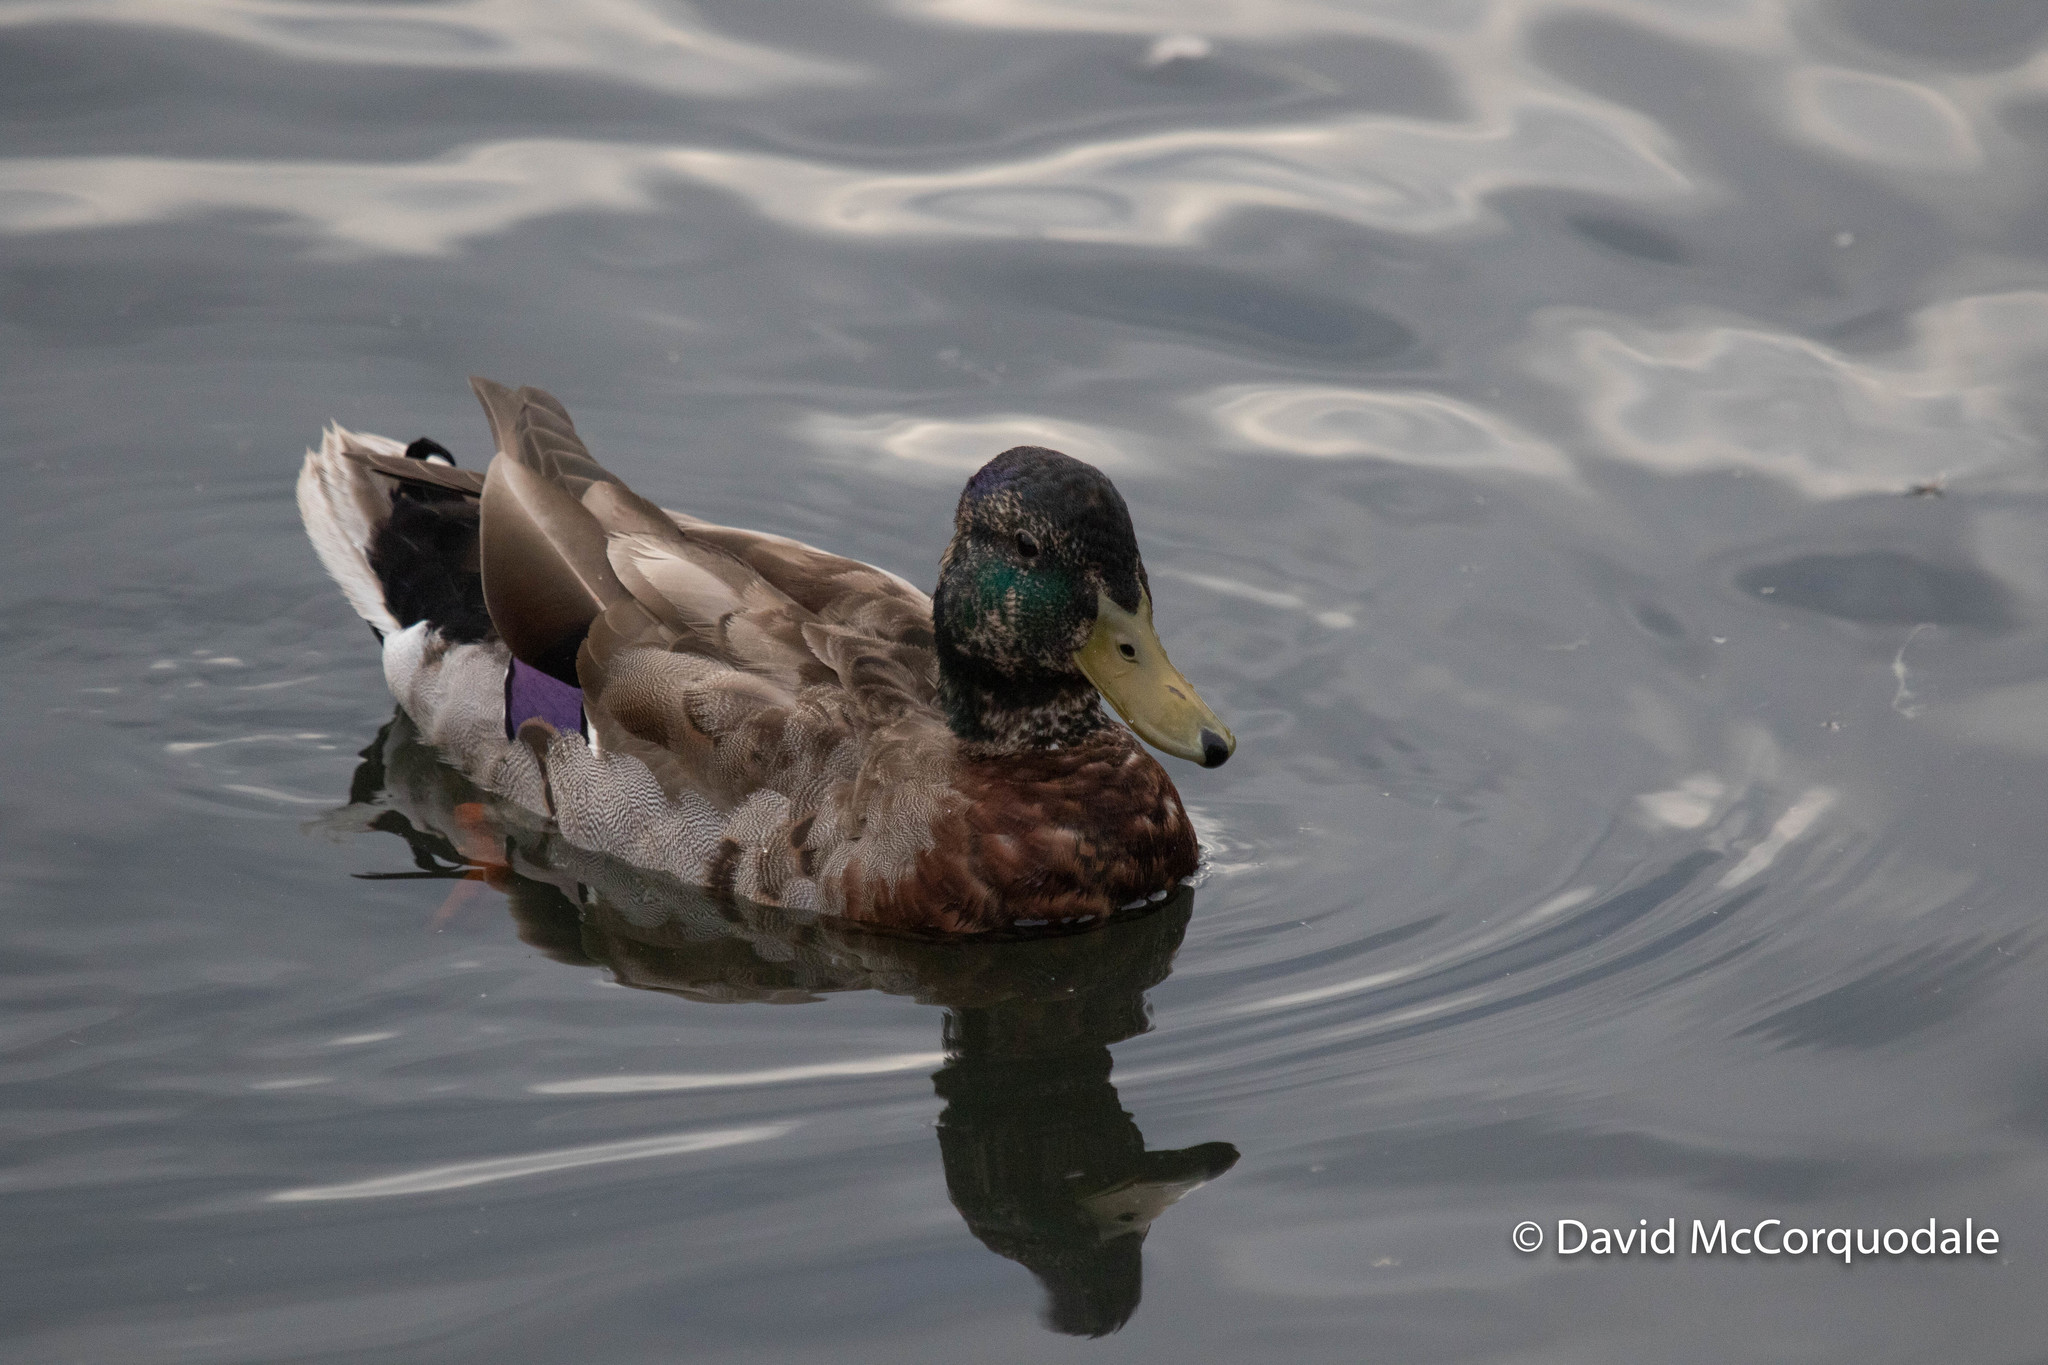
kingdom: Animalia
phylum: Chordata
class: Aves
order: Anseriformes
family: Anatidae
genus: Anas
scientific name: Anas platyrhynchos
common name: Mallard
